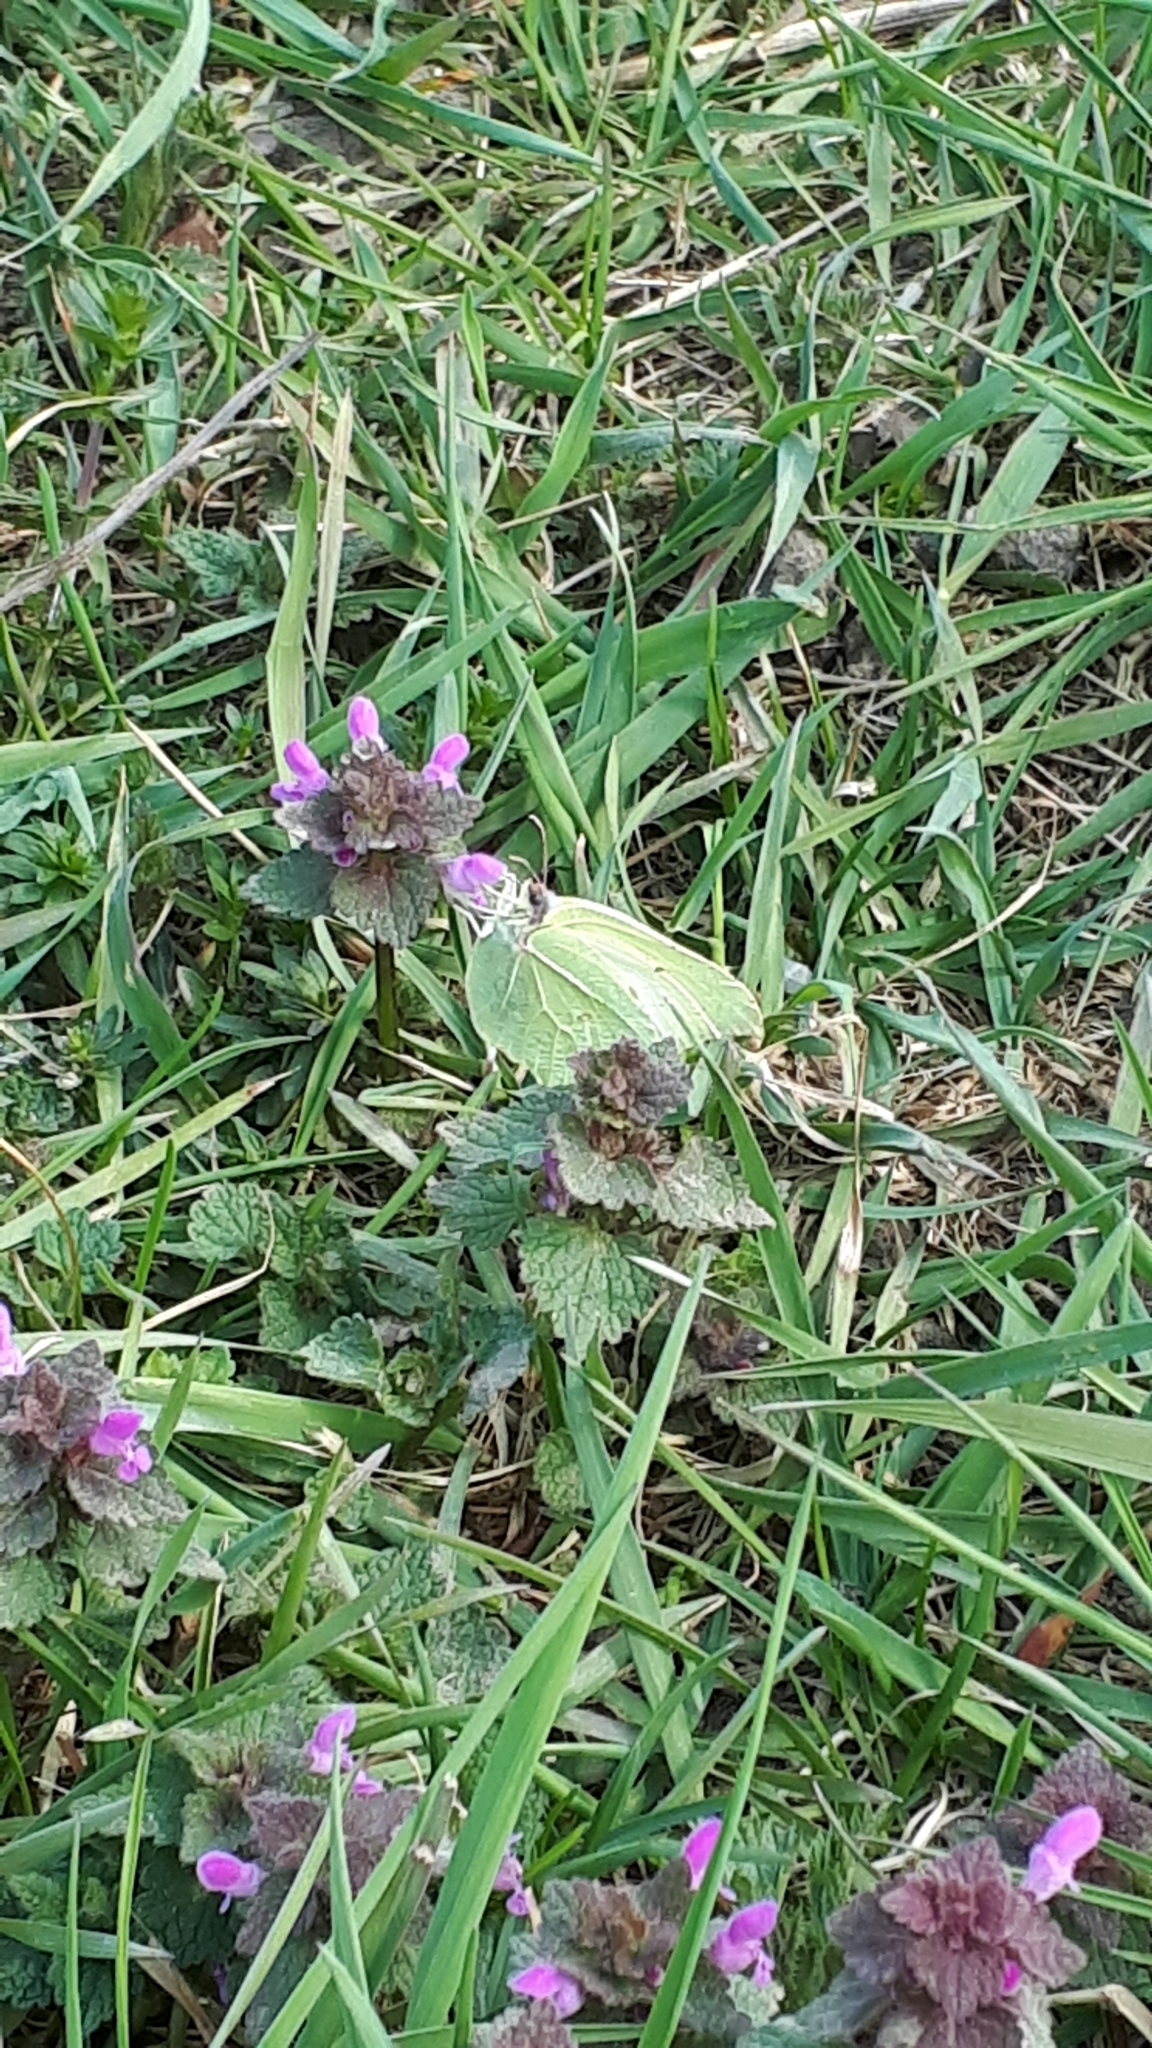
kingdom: Animalia
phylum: Arthropoda
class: Insecta
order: Lepidoptera
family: Pieridae
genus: Gonepteryx
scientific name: Gonepteryx rhamni
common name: Brimstone
